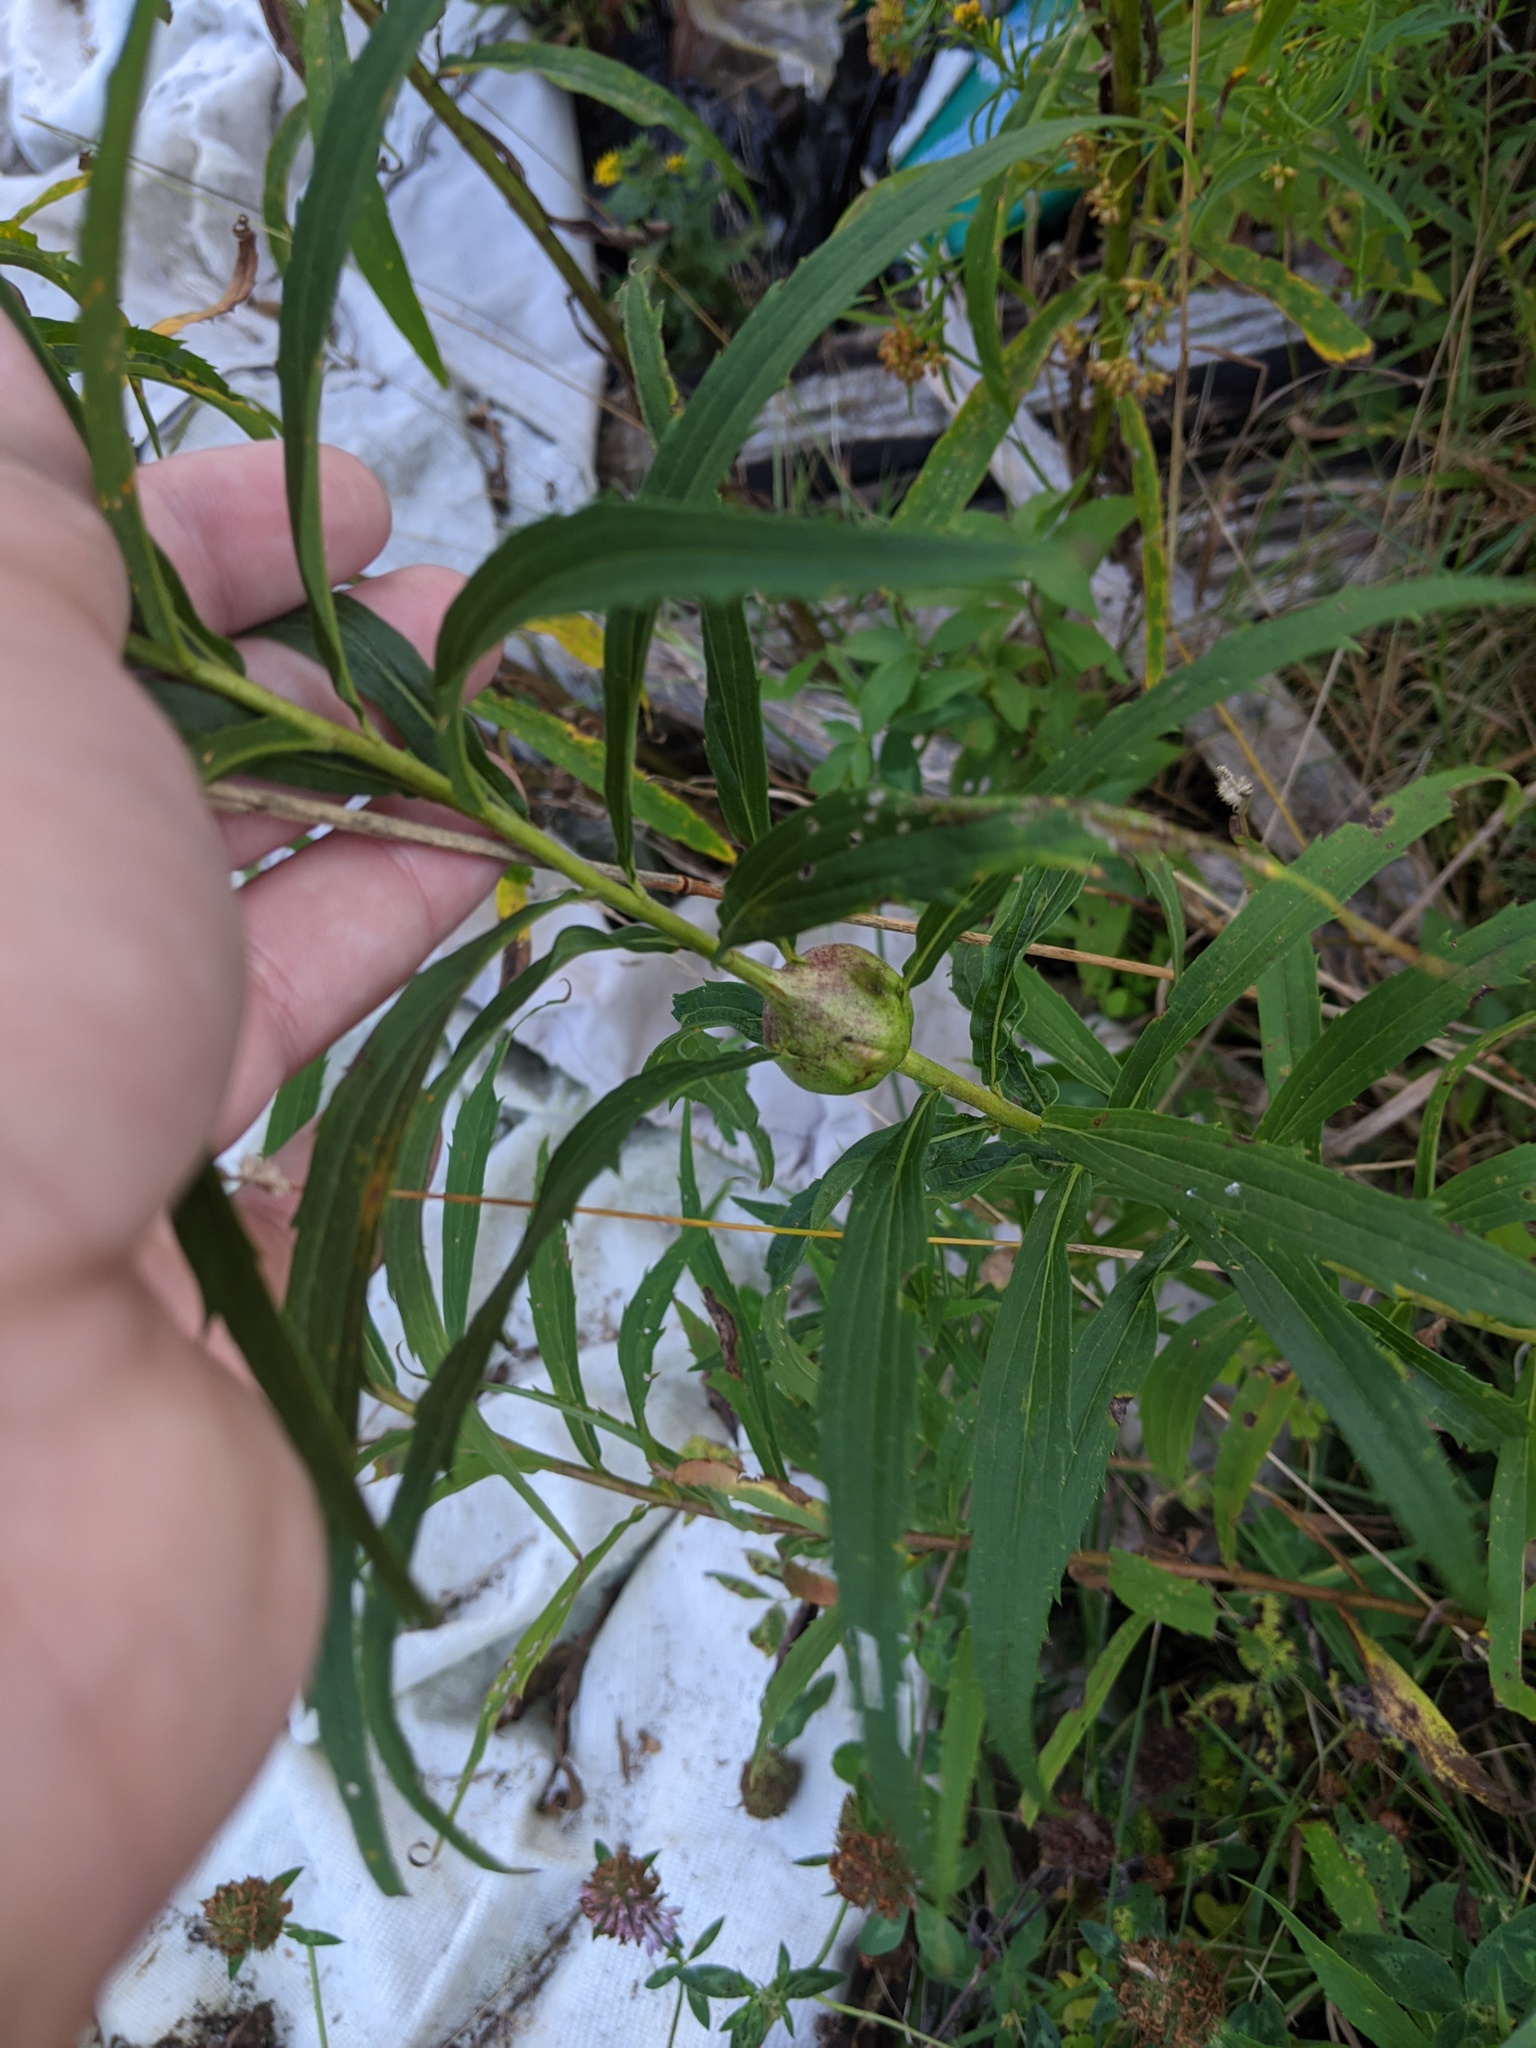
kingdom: Animalia
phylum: Arthropoda
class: Insecta
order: Diptera
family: Tephritidae
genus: Eurosta
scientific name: Eurosta solidaginis
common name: Goldenrod gall fly
